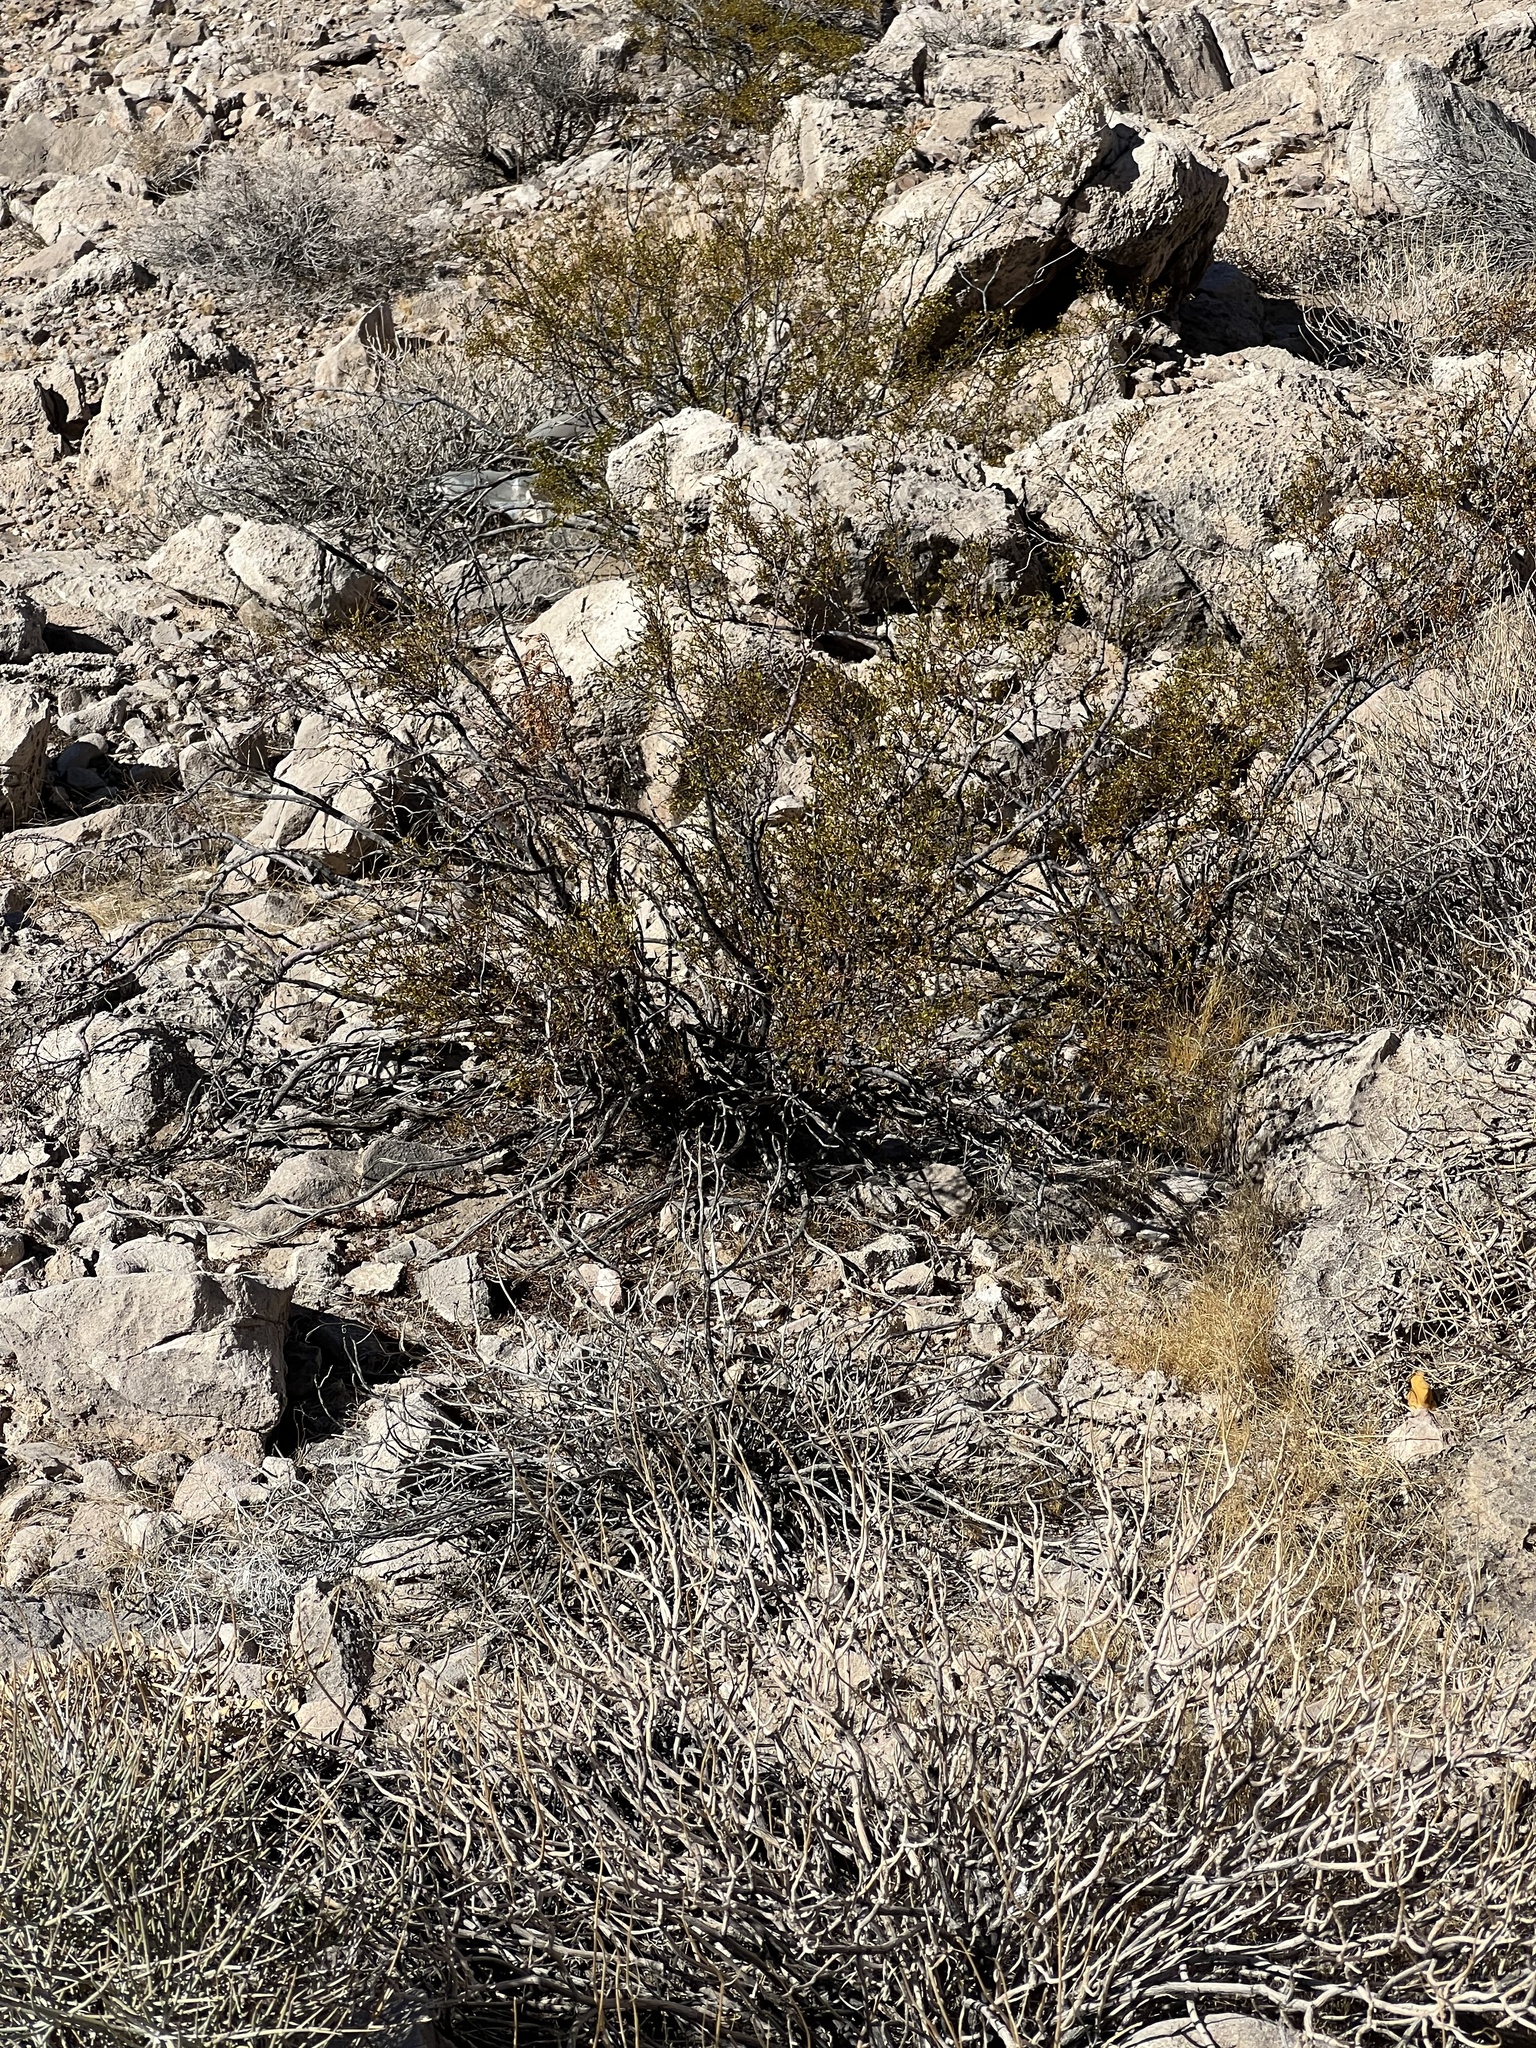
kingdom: Plantae
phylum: Tracheophyta
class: Magnoliopsida
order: Zygophyllales
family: Zygophyllaceae
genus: Larrea
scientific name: Larrea tridentata
